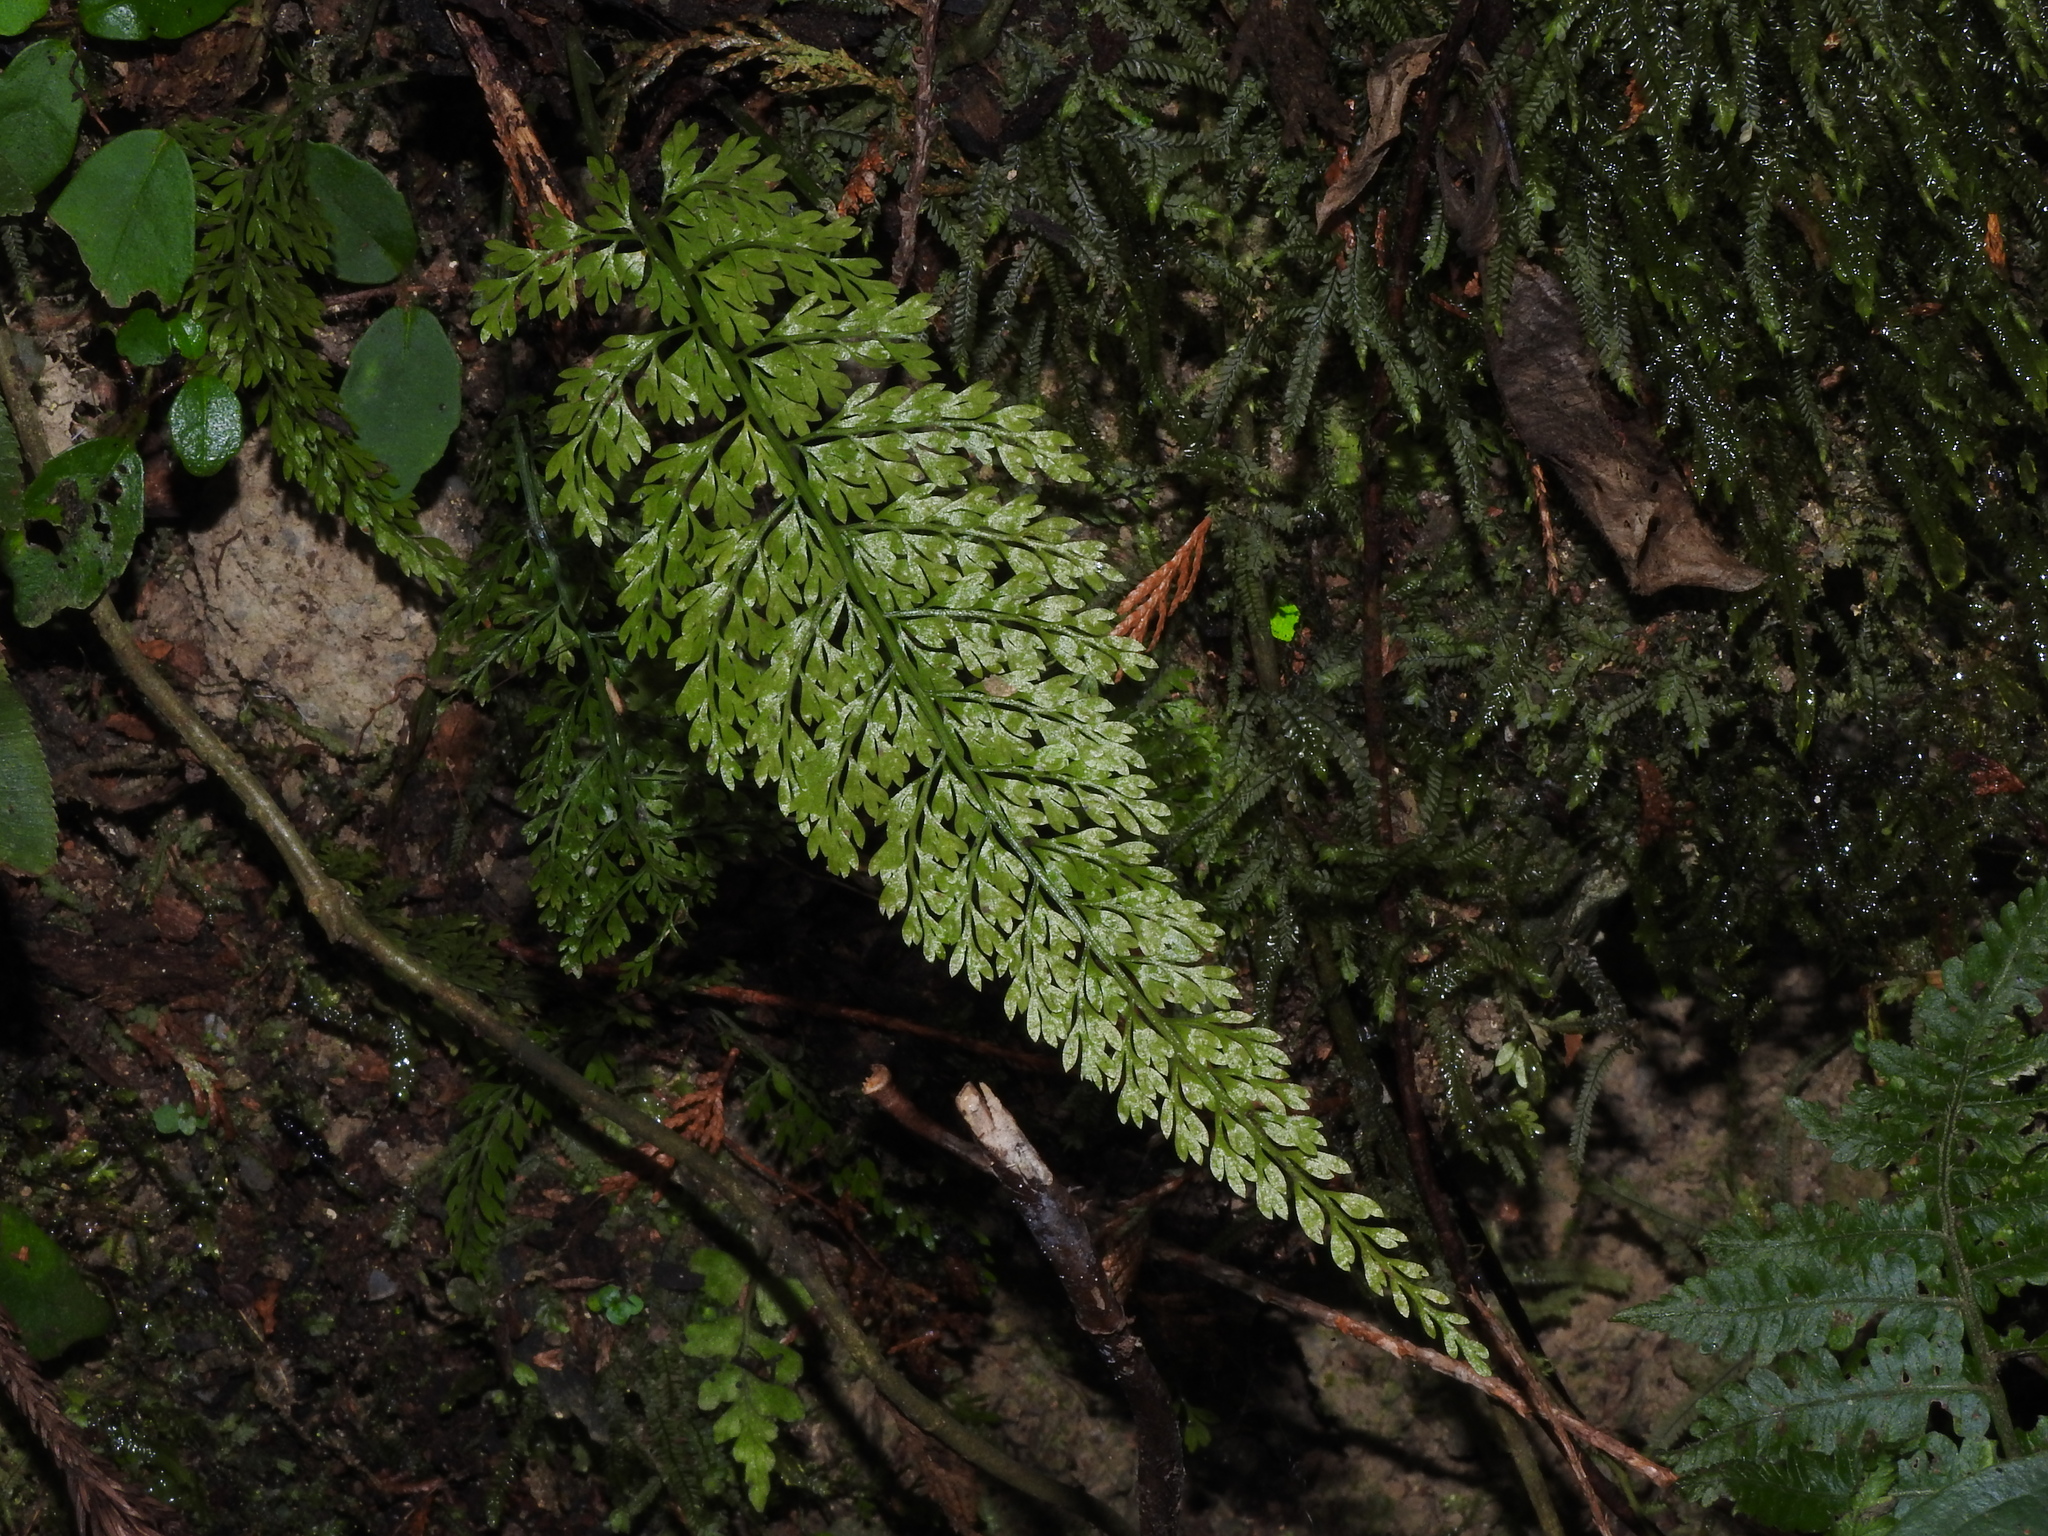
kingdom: Plantae
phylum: Tracheophyta
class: Polypodiopsida
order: Polypodiales
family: Aspleniaceae
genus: Asplenium
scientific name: Asplenium tenuifolium
